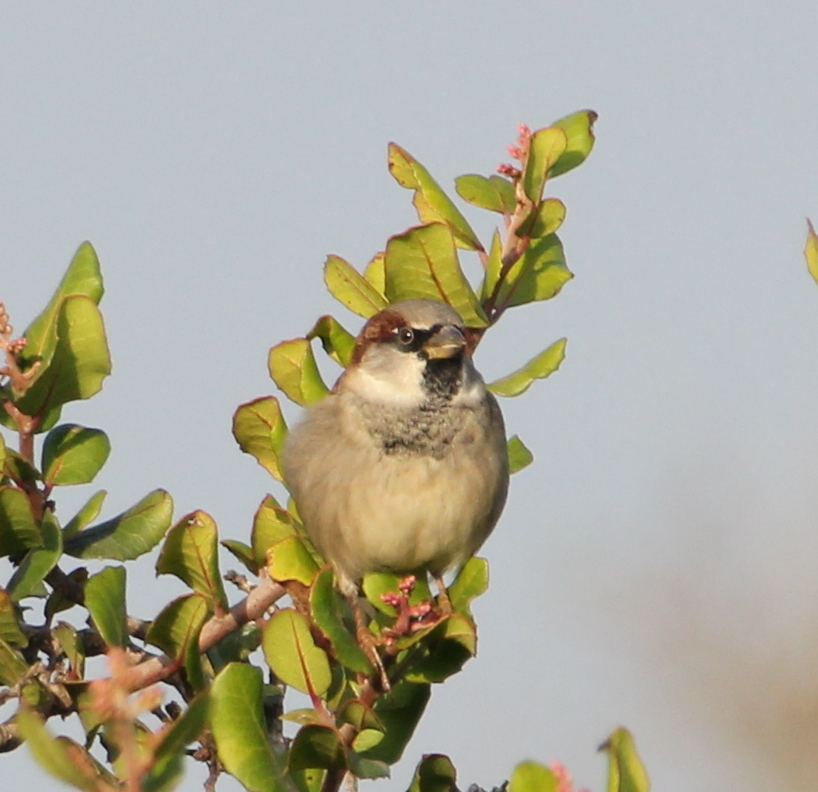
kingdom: Animalia
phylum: Chordata
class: Aves
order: Passeriformes
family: Passeridae
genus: Passer
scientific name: Passer domesticus
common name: House sparrow
